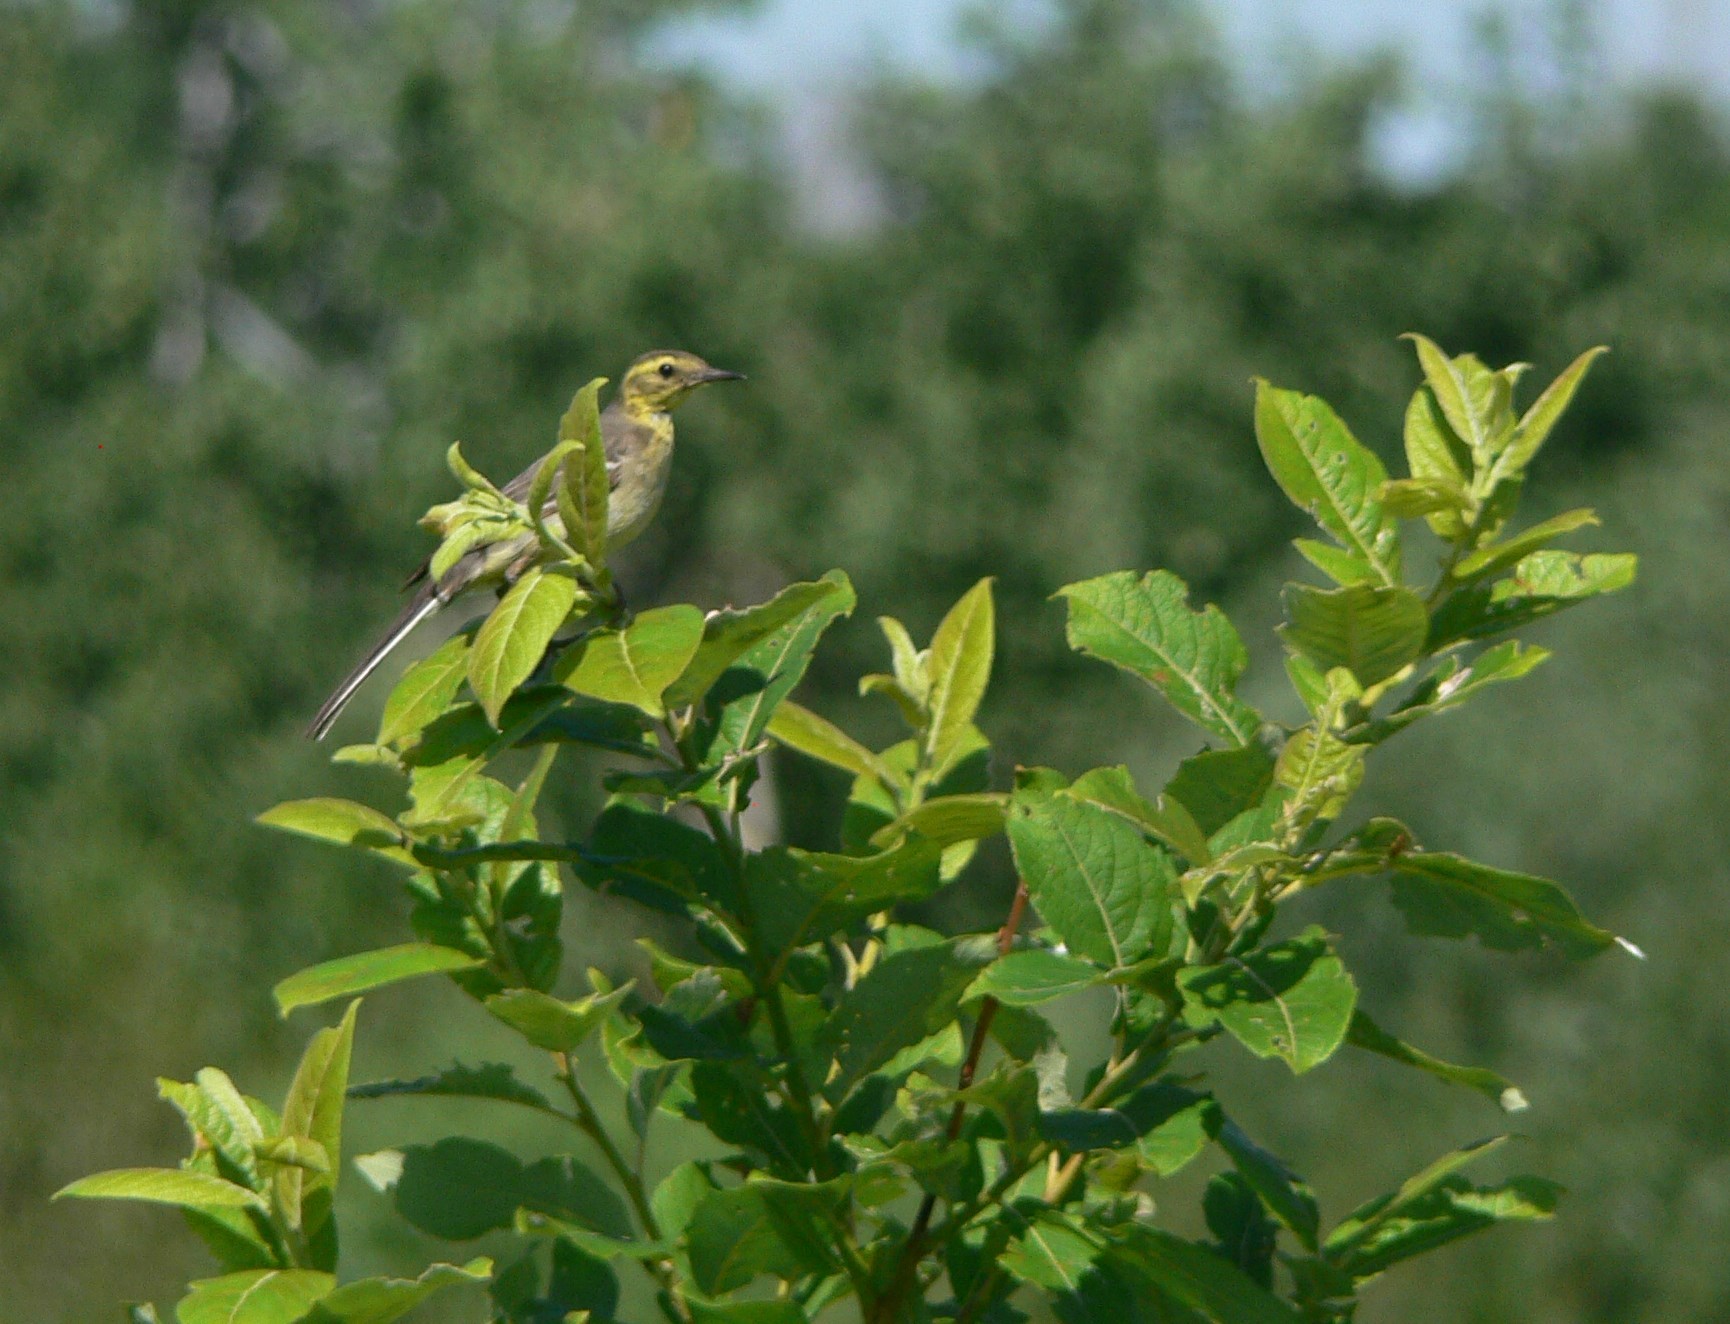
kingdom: Animalia
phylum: Chordata
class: Aves
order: Passeriformes
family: Motacillidae
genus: Motacilla
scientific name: Motacilla citreola
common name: Citrine wagtail
